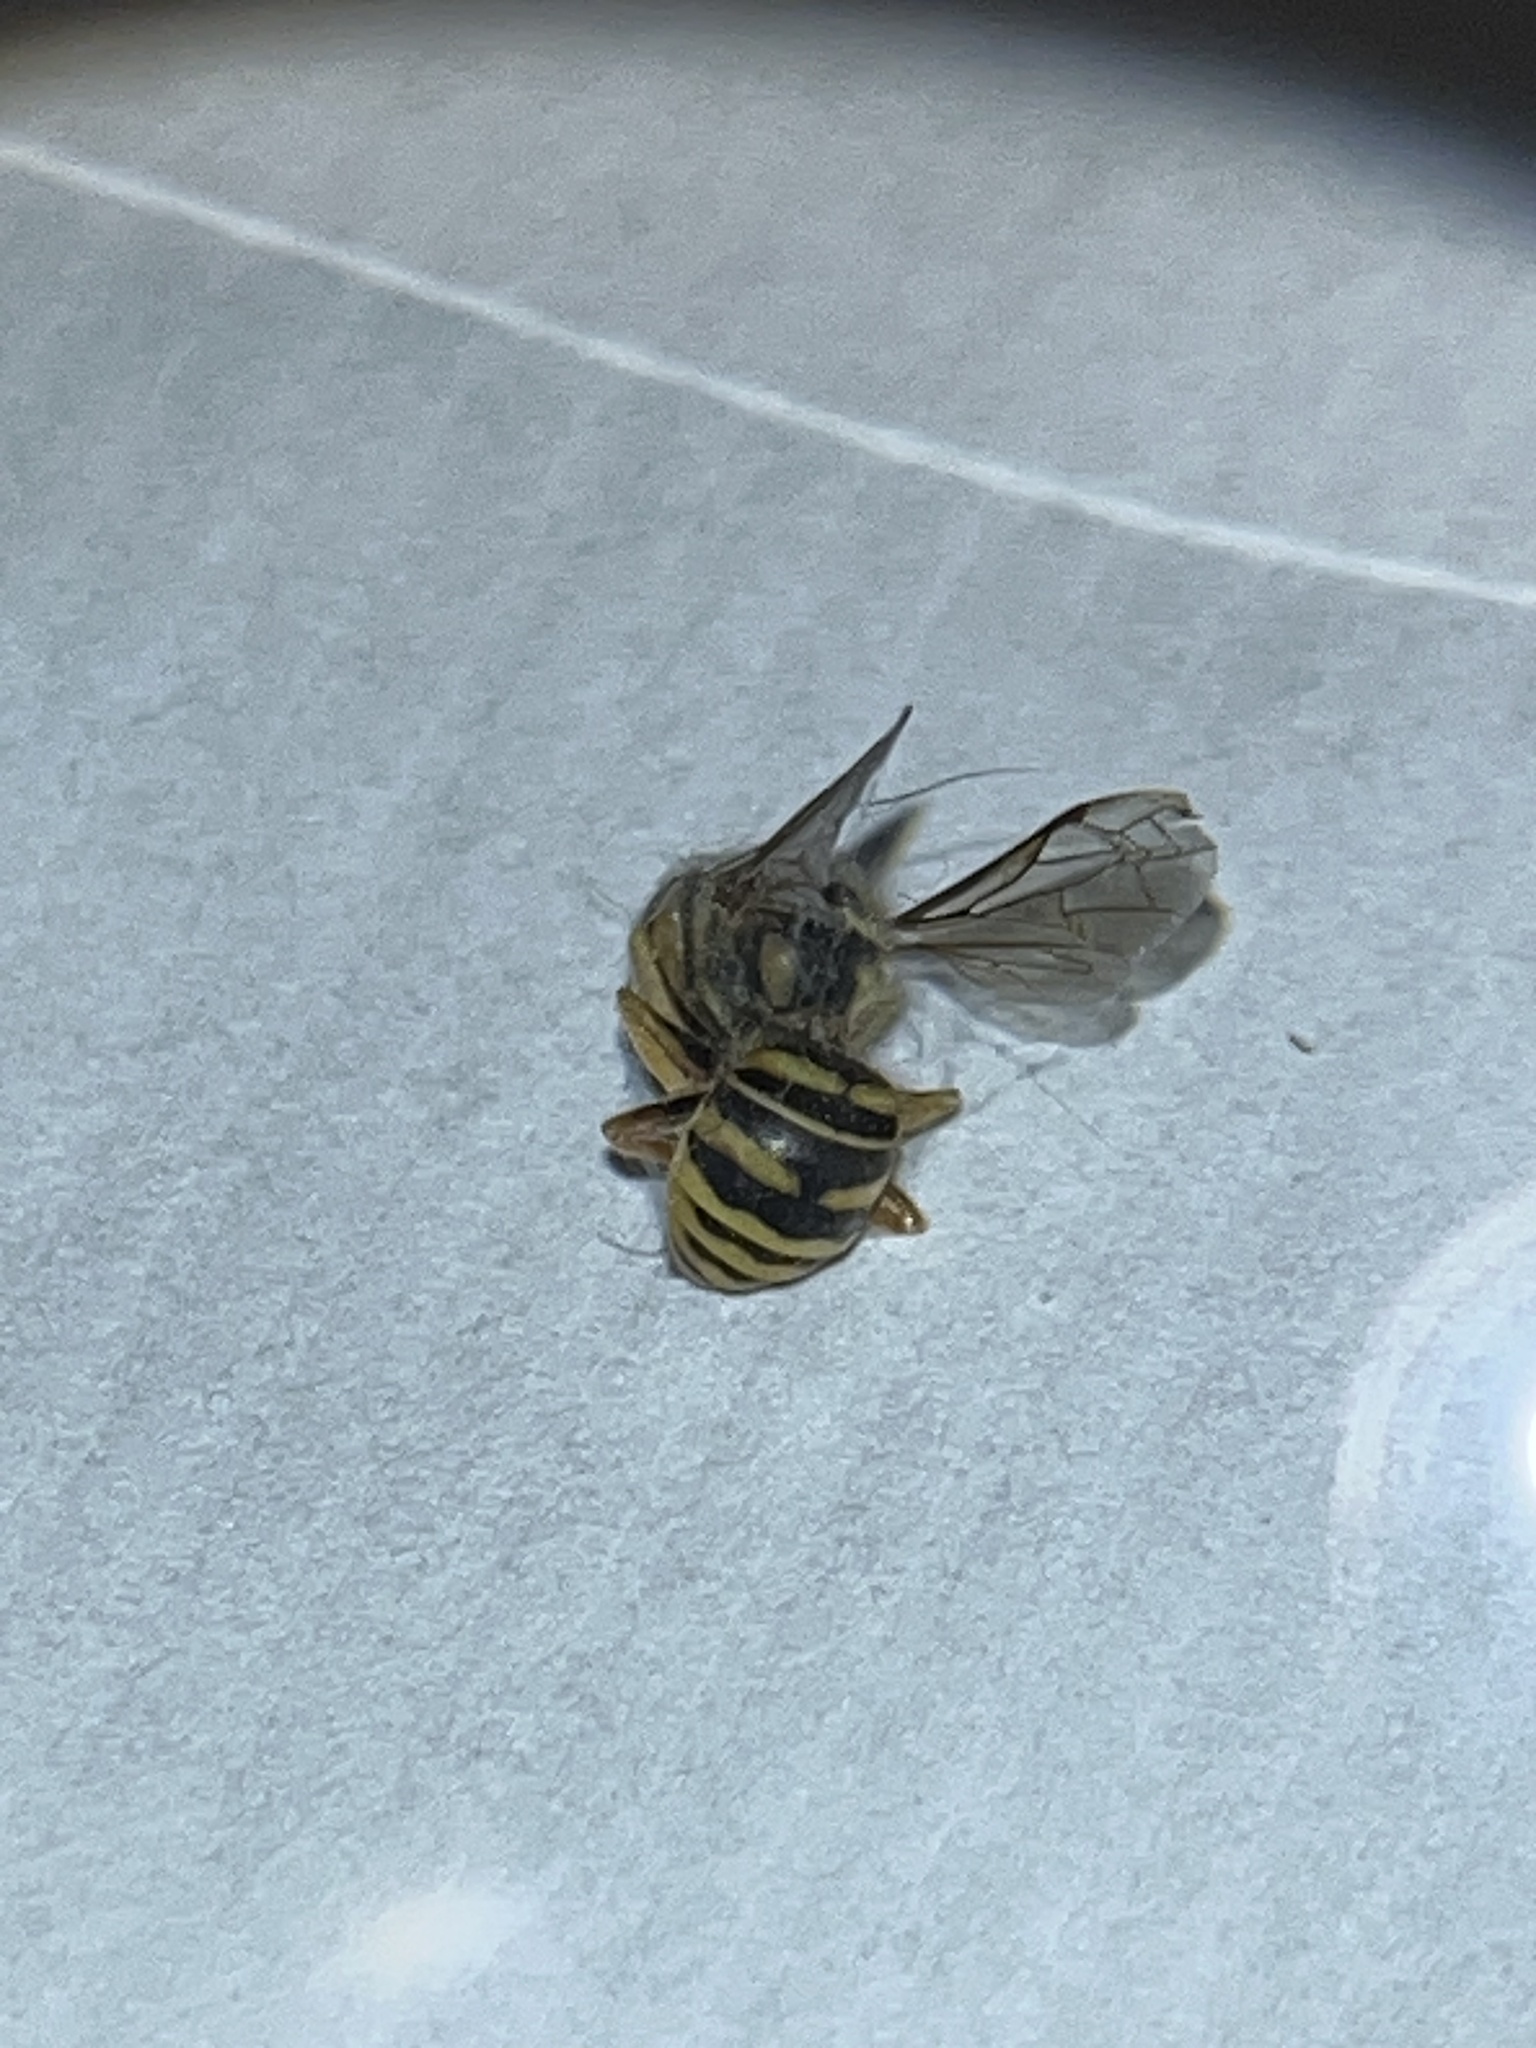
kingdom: Animalia
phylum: Arthropoda
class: Insecta
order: Hymenoptera
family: Vespidae
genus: Vespula
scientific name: Vespula squamosa
